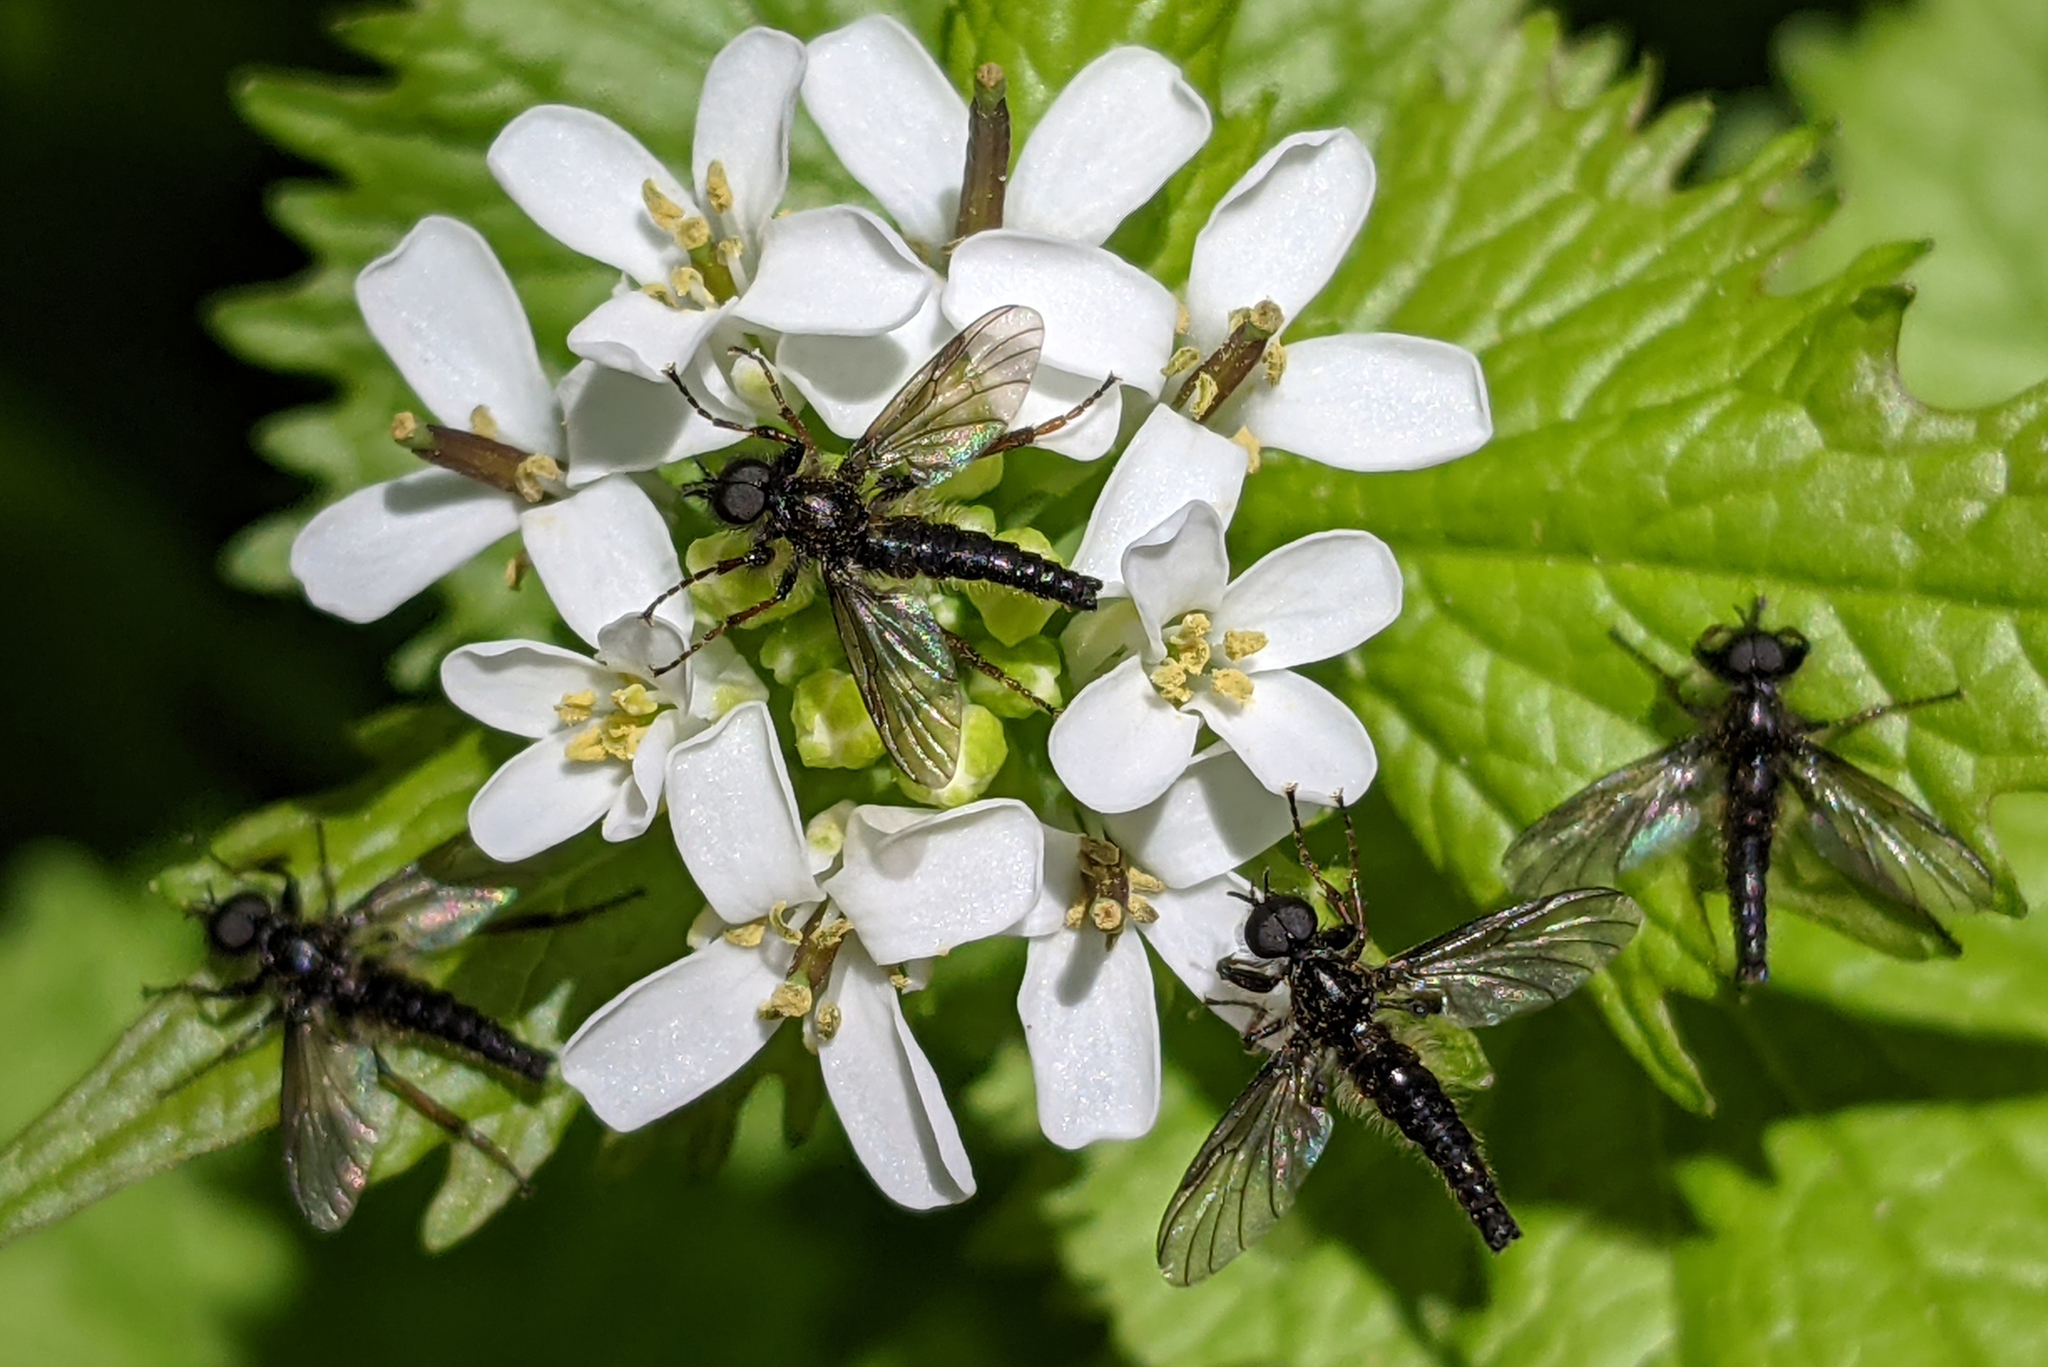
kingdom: Animalia
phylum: Arthropoda
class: Insecta
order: Diptera
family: Bibionidae
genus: Bibio
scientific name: Bibio lanigerus
